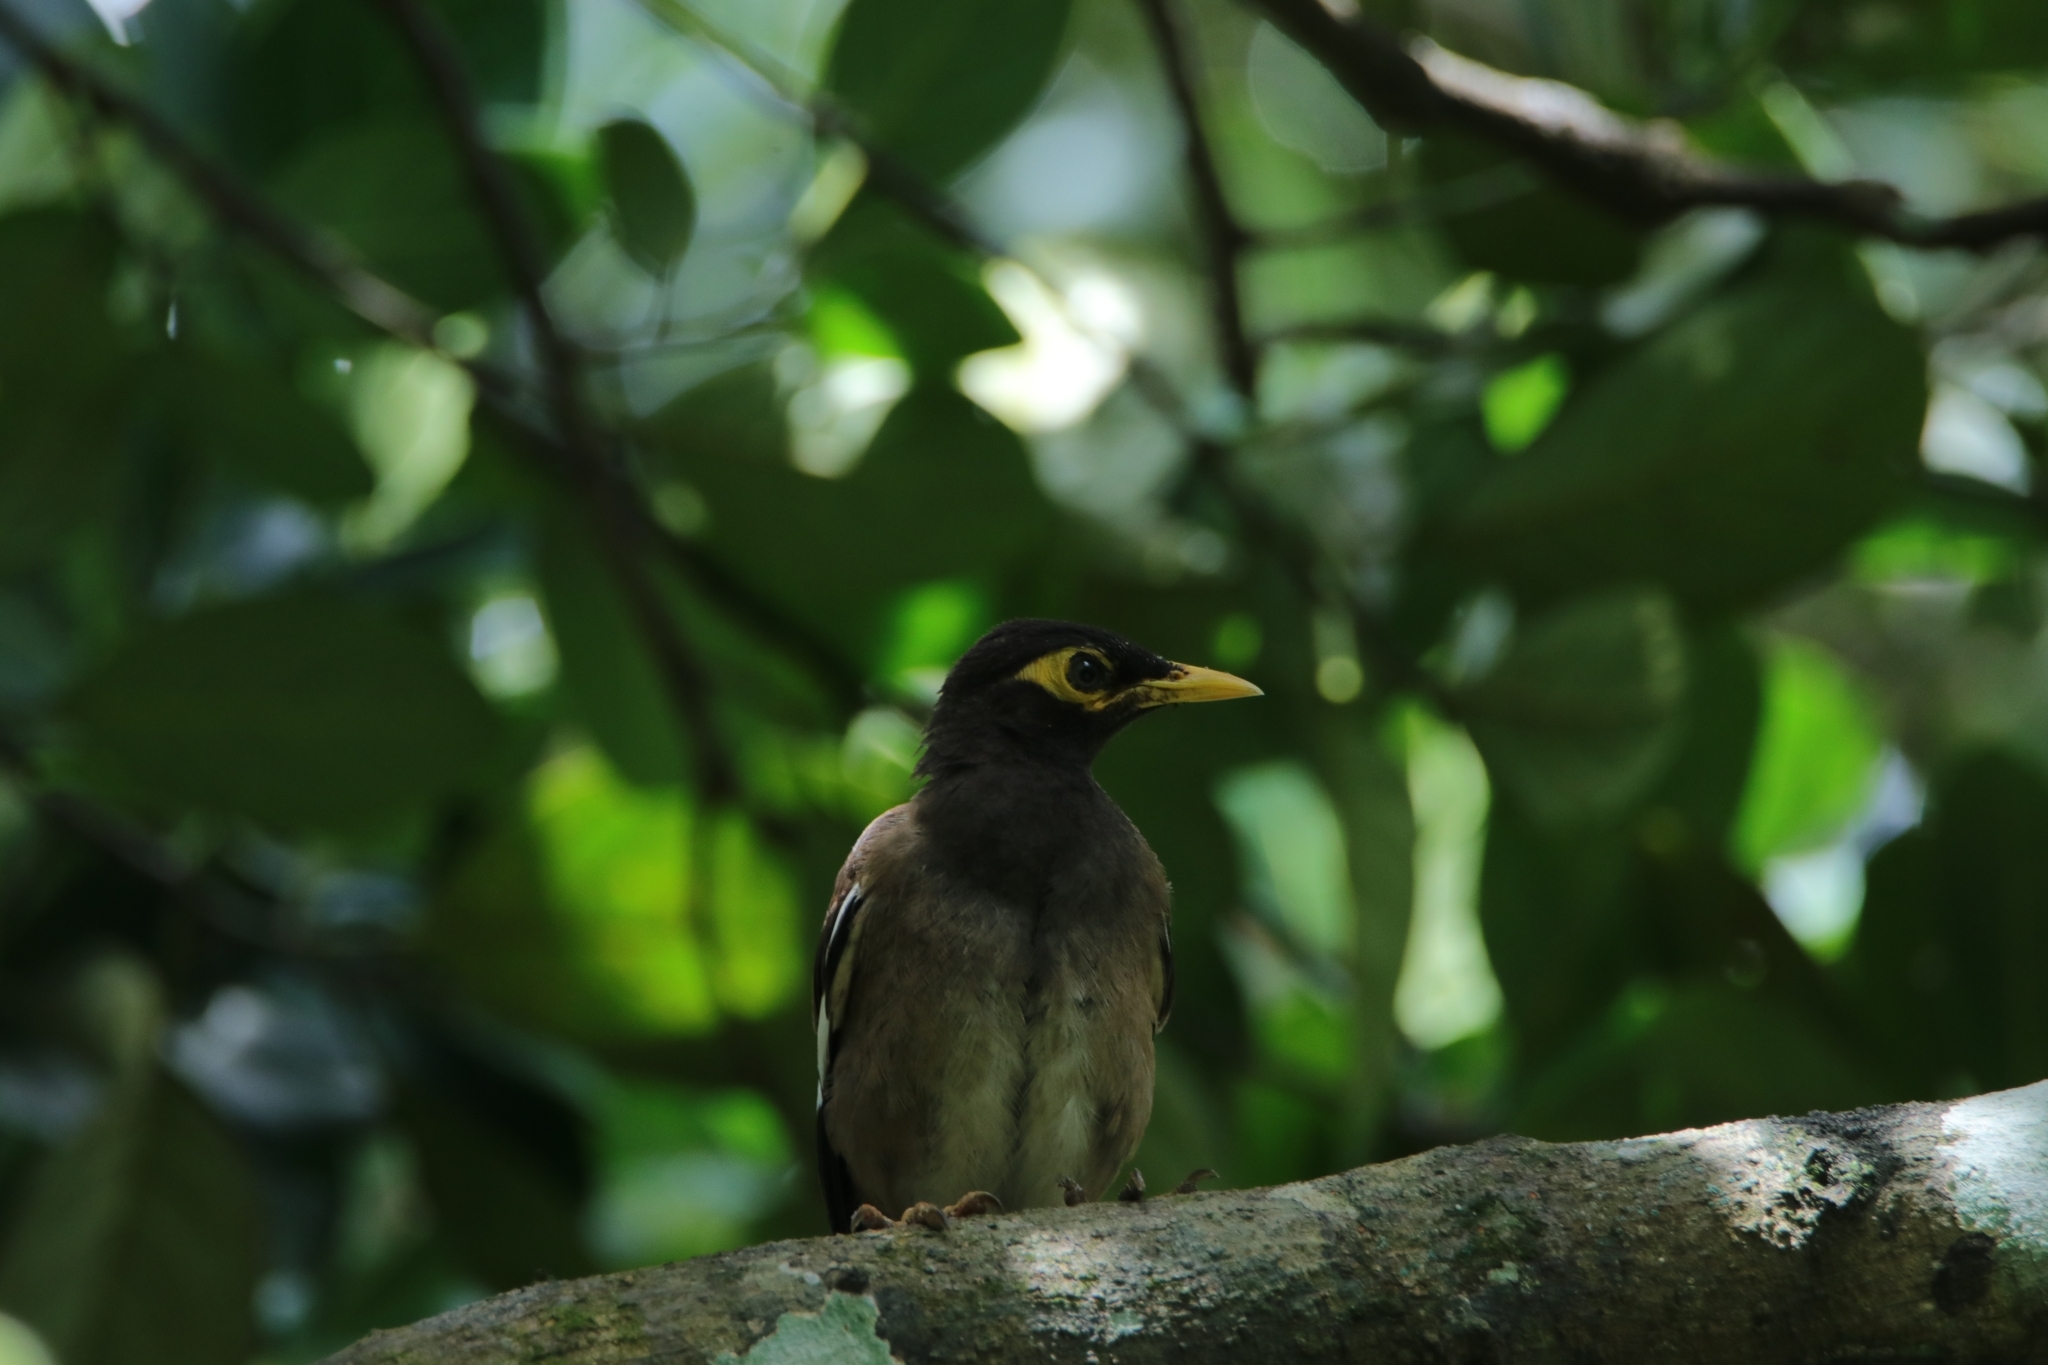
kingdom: Animalia
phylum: Chordata
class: Aves
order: Passeriformes
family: Sturnidae
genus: Acridotheres
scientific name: Acridotheres tristis
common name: Common myna
